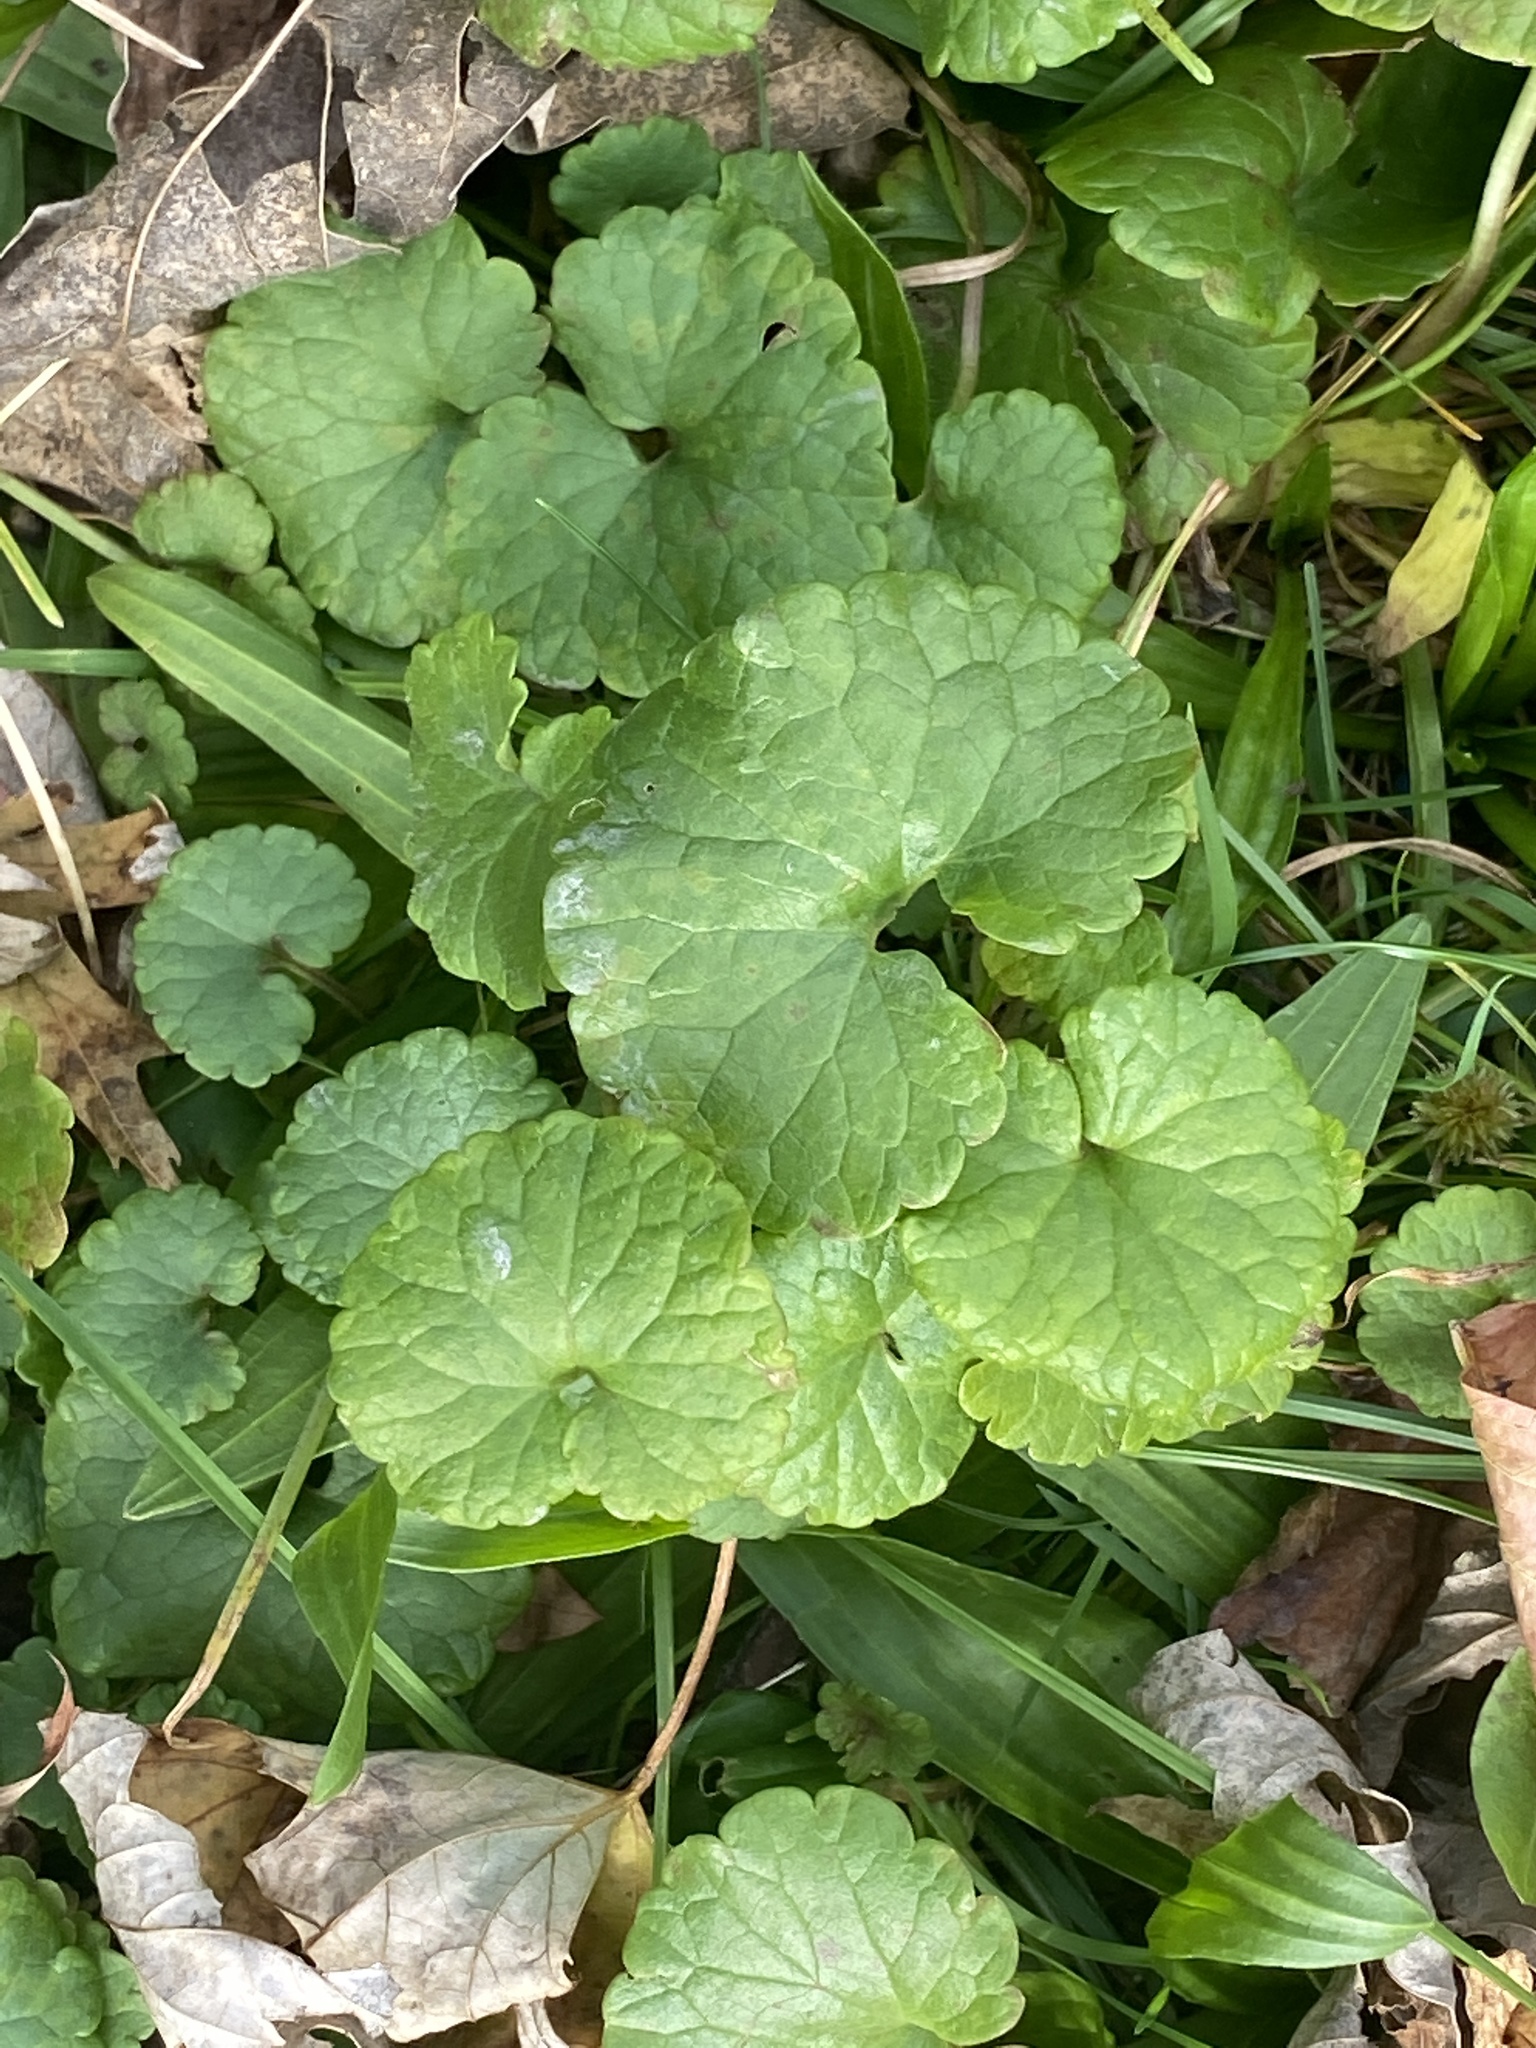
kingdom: Plantae
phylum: Tracheophyta
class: Magnoliopsida
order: Lamiales
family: Lamiaceae
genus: Glechoma
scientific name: Glechoma hederacea
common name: Ground ivy
